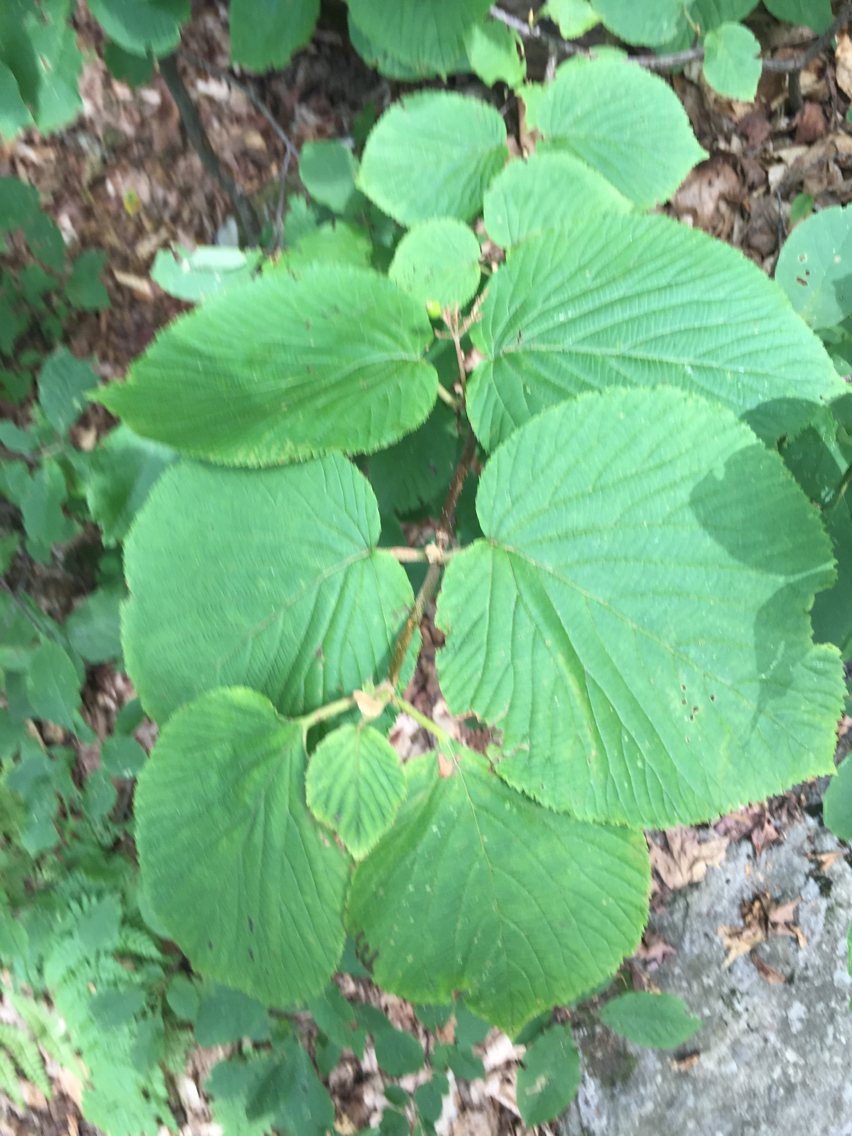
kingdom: Plantae
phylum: Tracheophyta
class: Magnoliopsida
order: Dipsacales
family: Viburnaceae
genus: Viburnum
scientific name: Viburnum lantanoides
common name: Hobblebush
